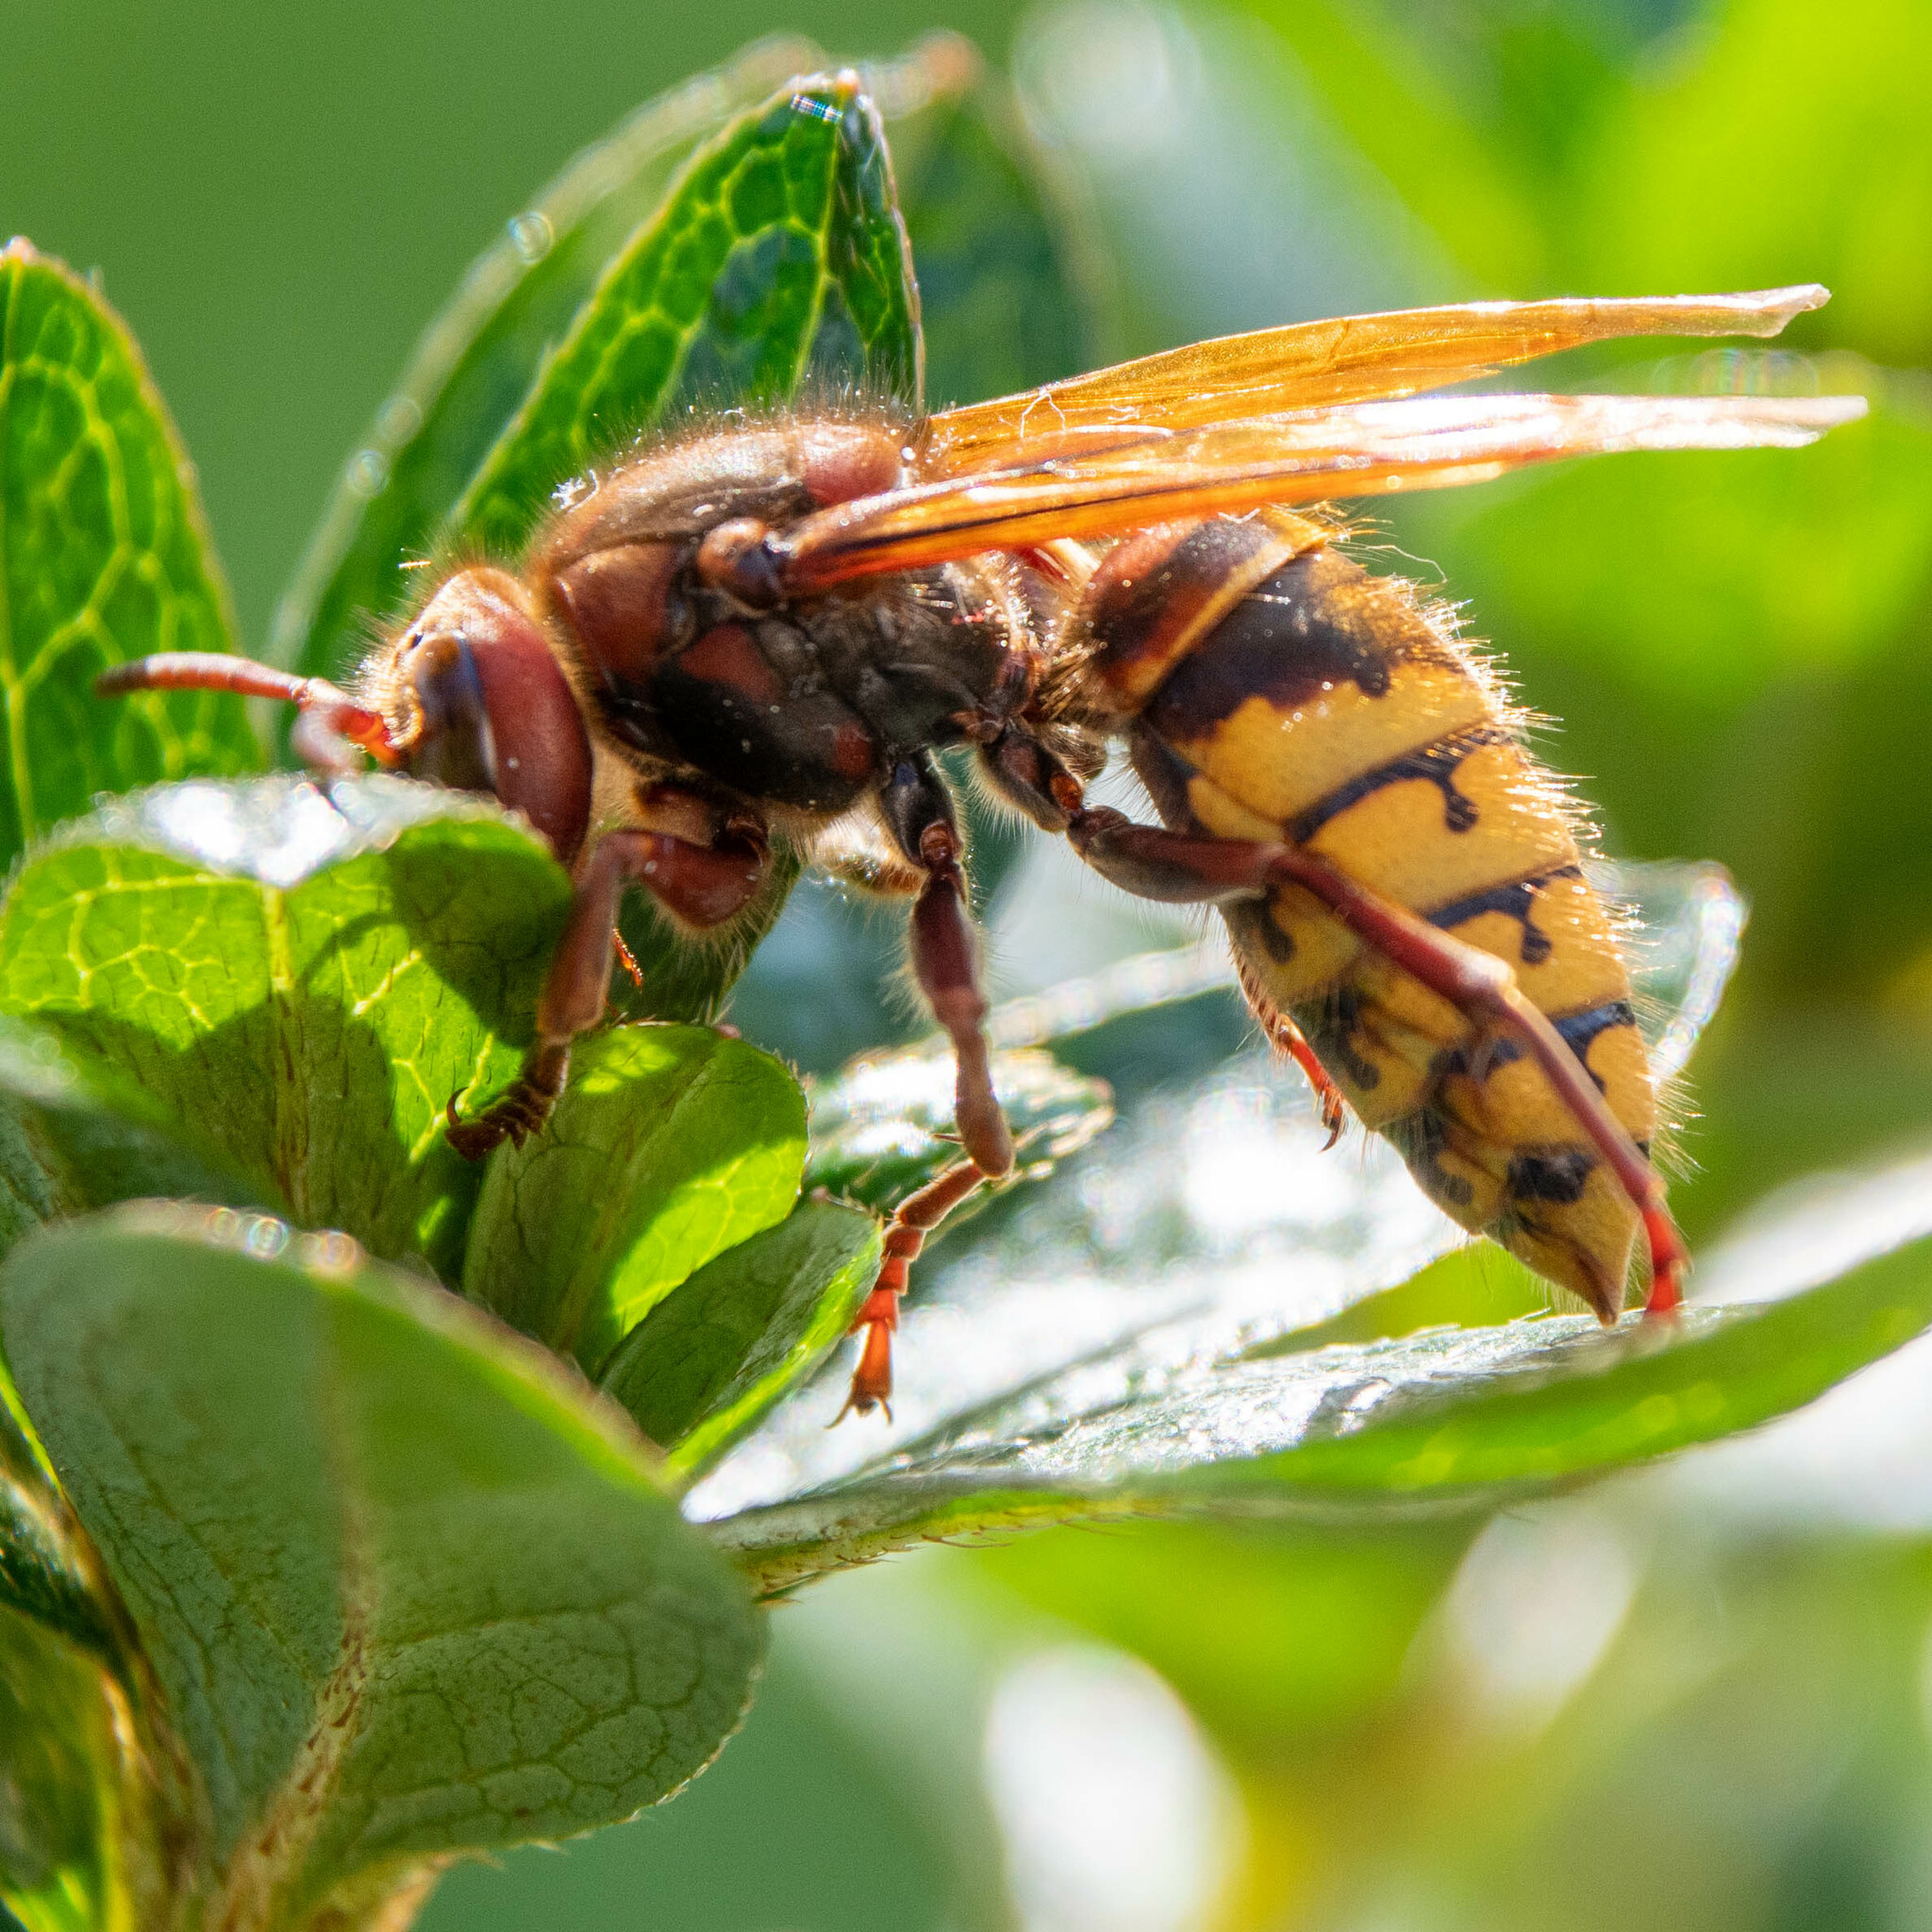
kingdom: Animalia
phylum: Arthropoda
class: Insecta
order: Hymenoptera
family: Vespidae
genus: Vespa
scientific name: Vespa crabro
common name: Hornet
